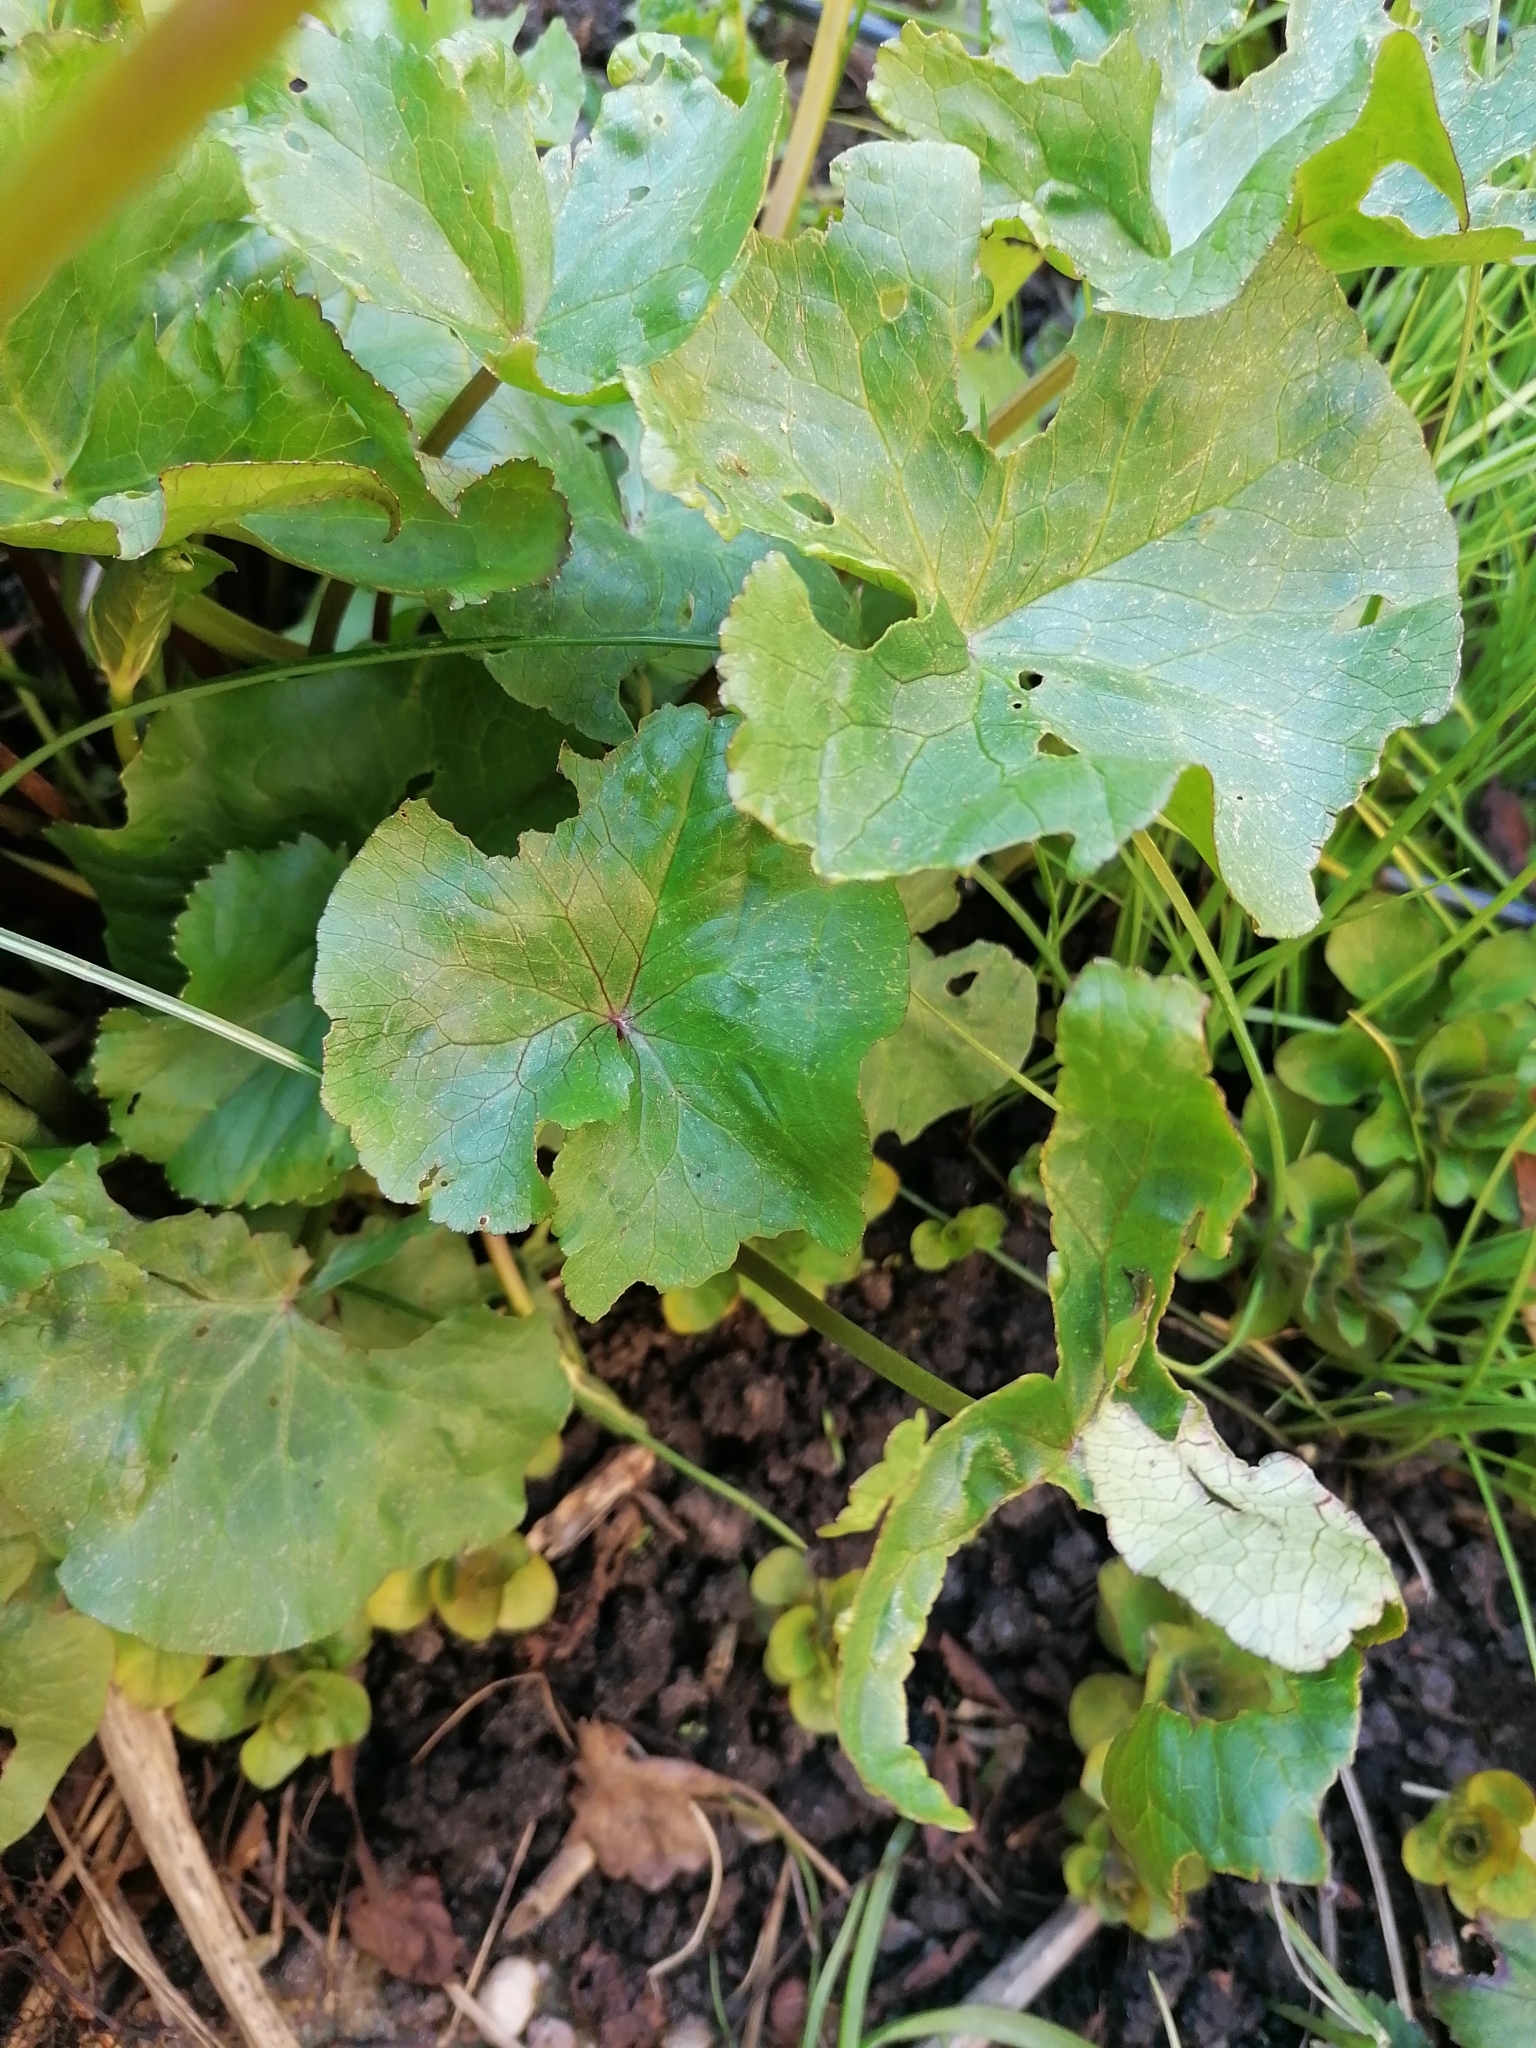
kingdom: Plantae
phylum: Tracheophyta
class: Magnoliopsida
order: Ranunculales
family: Ranunculaceae
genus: Caltha
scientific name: Caltha palustris
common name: Marsh marigold
